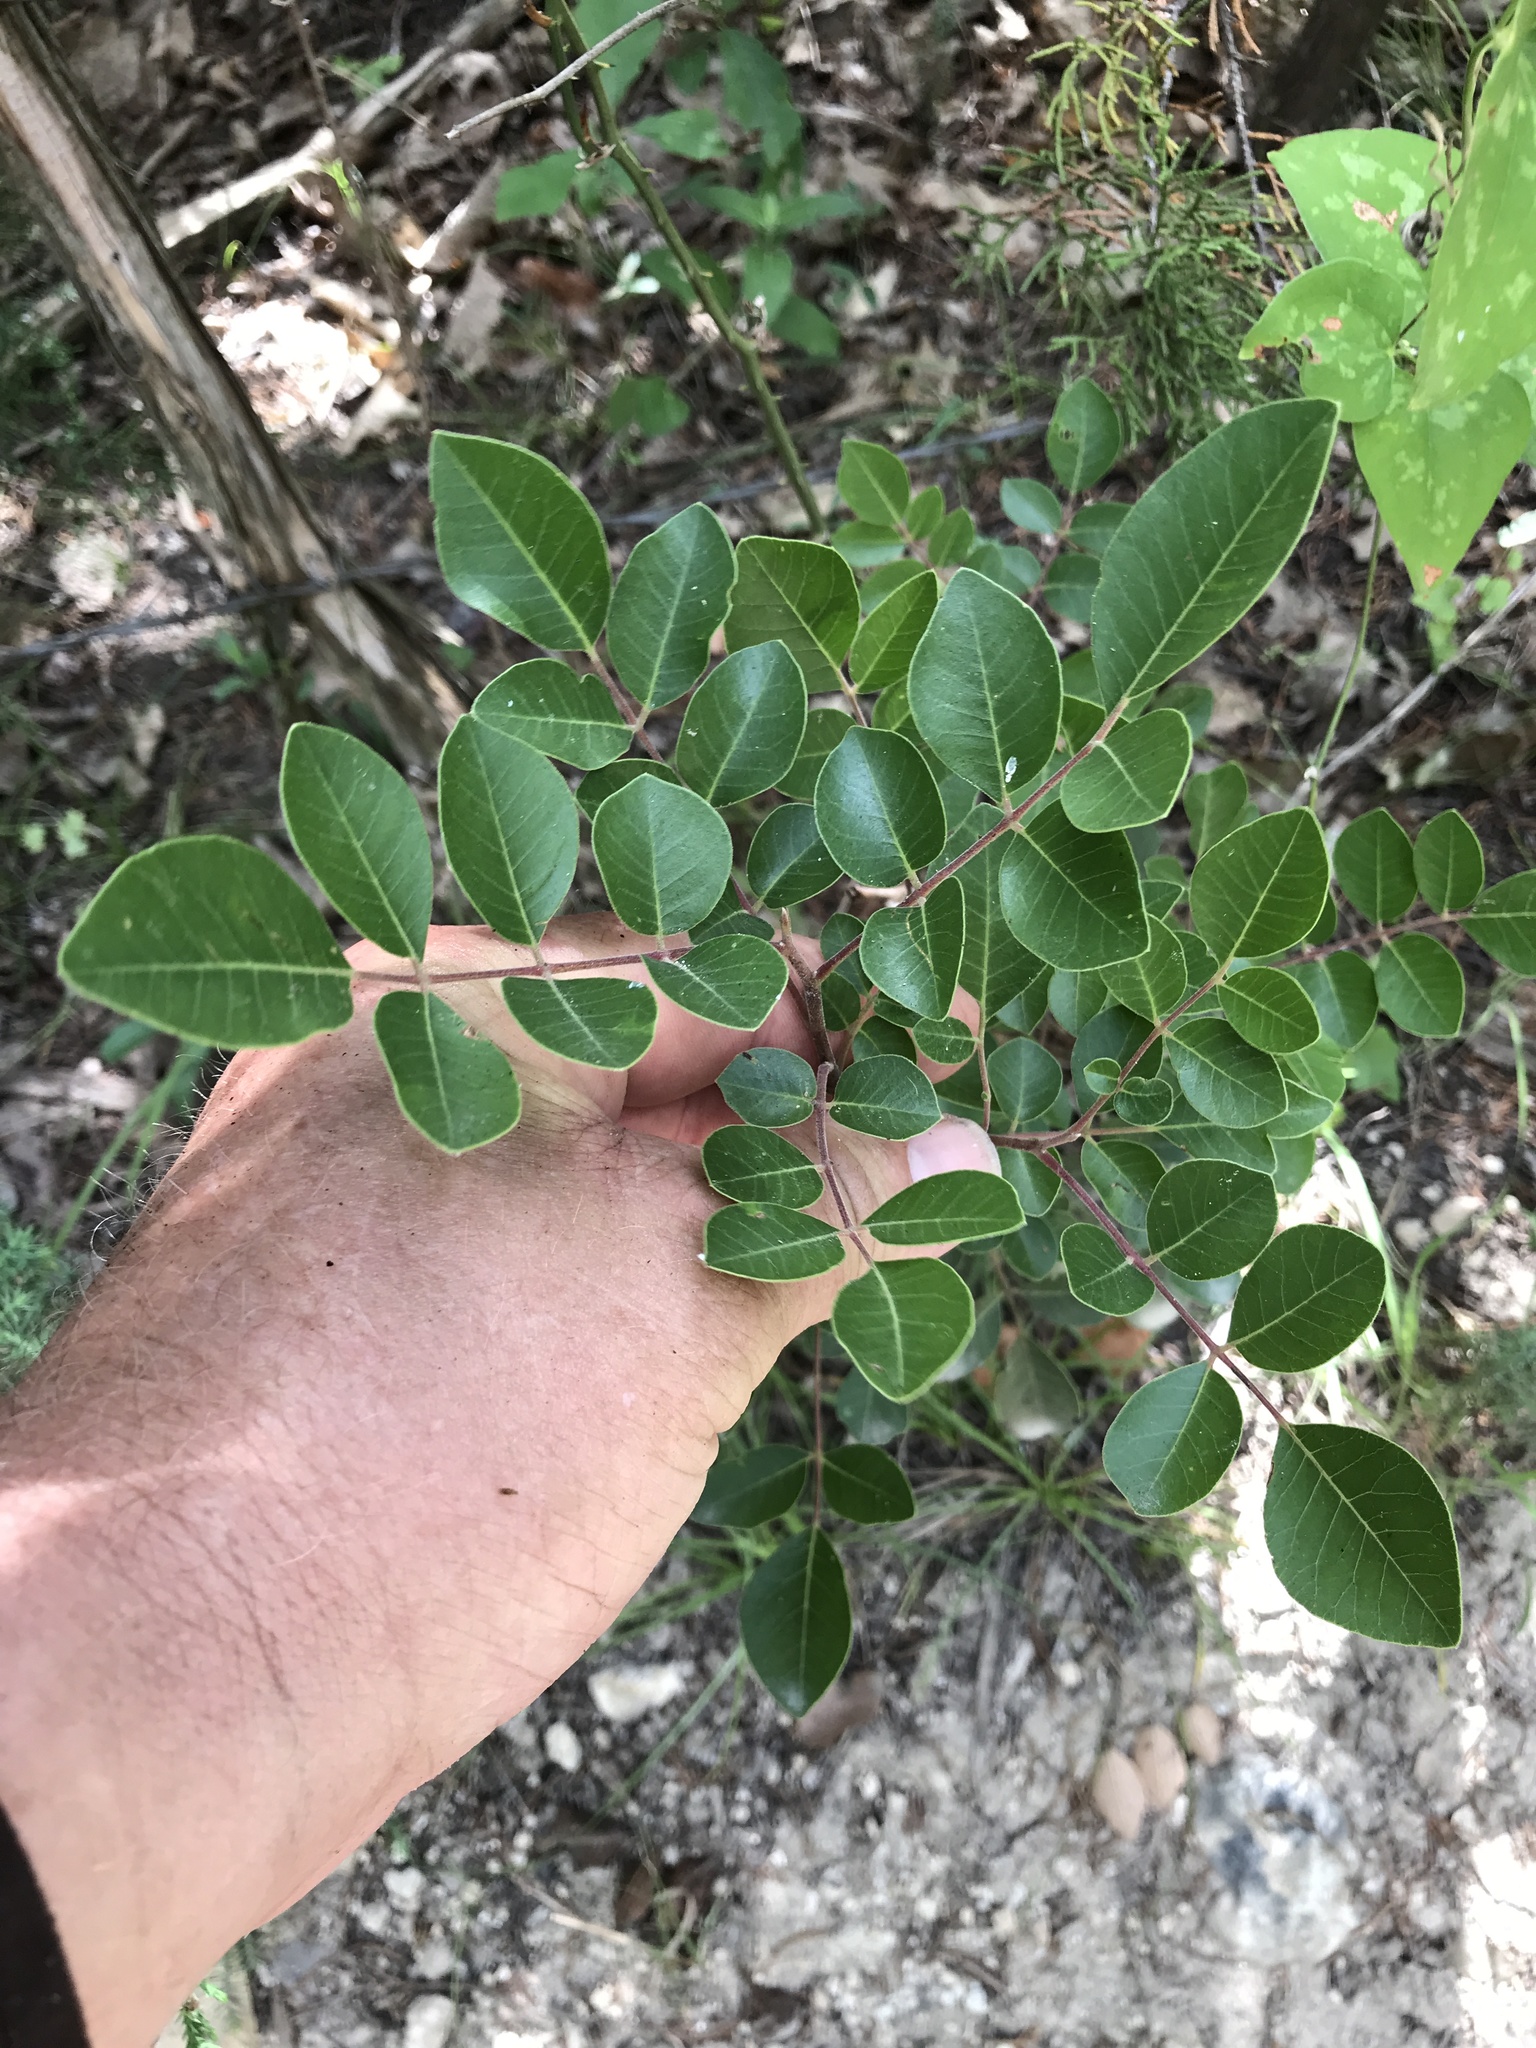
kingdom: Plantae
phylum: Tracheophyta
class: Magnoliopsida
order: Sapindales
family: Anacardiaceae
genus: Rhus
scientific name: Rhus virens
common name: Evergreen sumac
